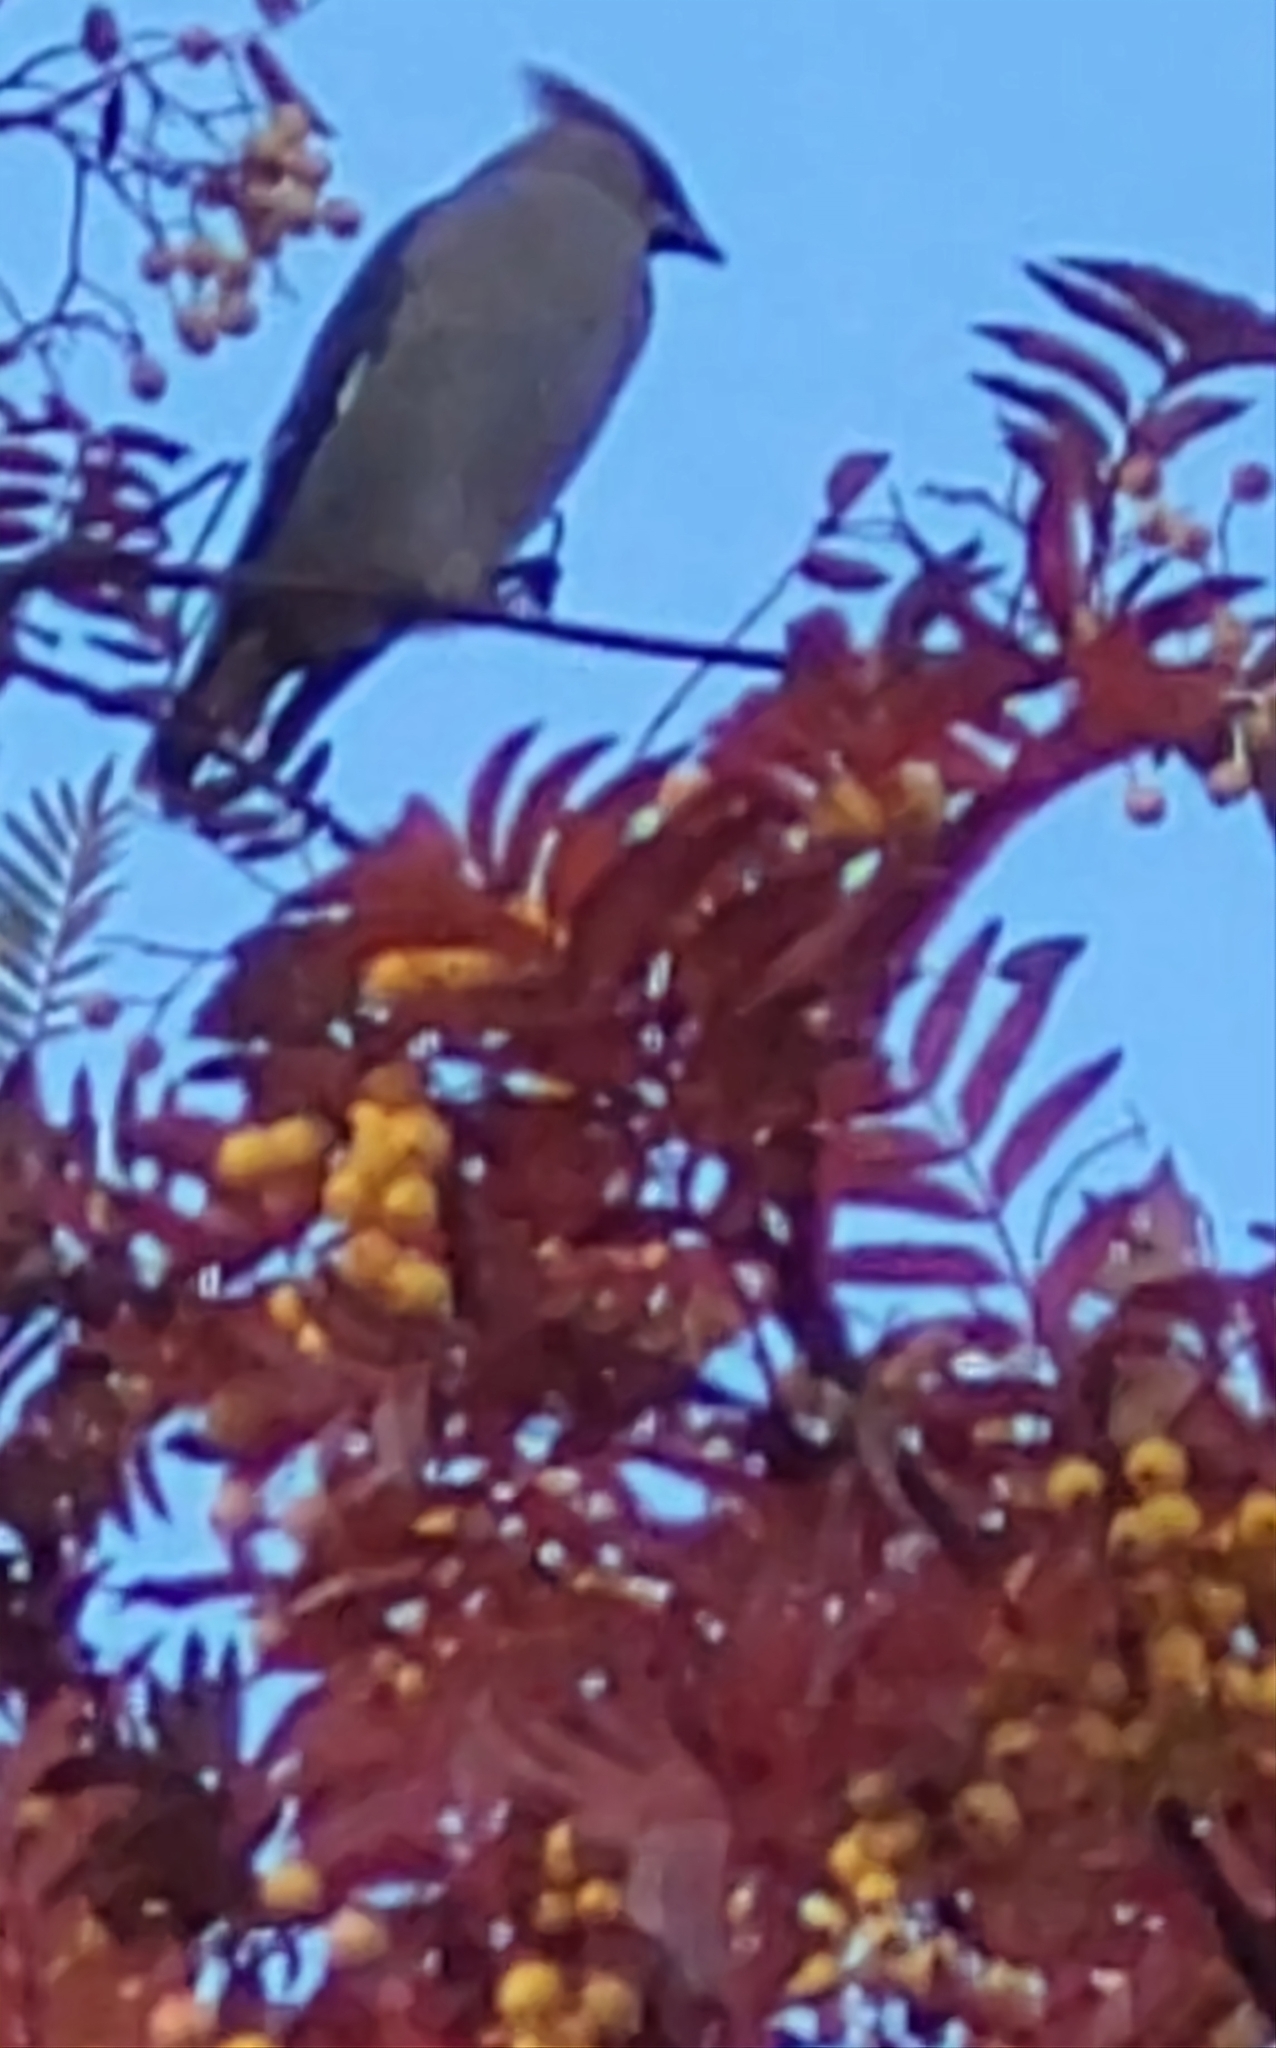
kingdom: Animalia
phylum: Chordata
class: Aves
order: Passeriformes
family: Bombycillidae
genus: Bombycilla
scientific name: Bombycilla garrulus
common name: Bohemian waxwing
